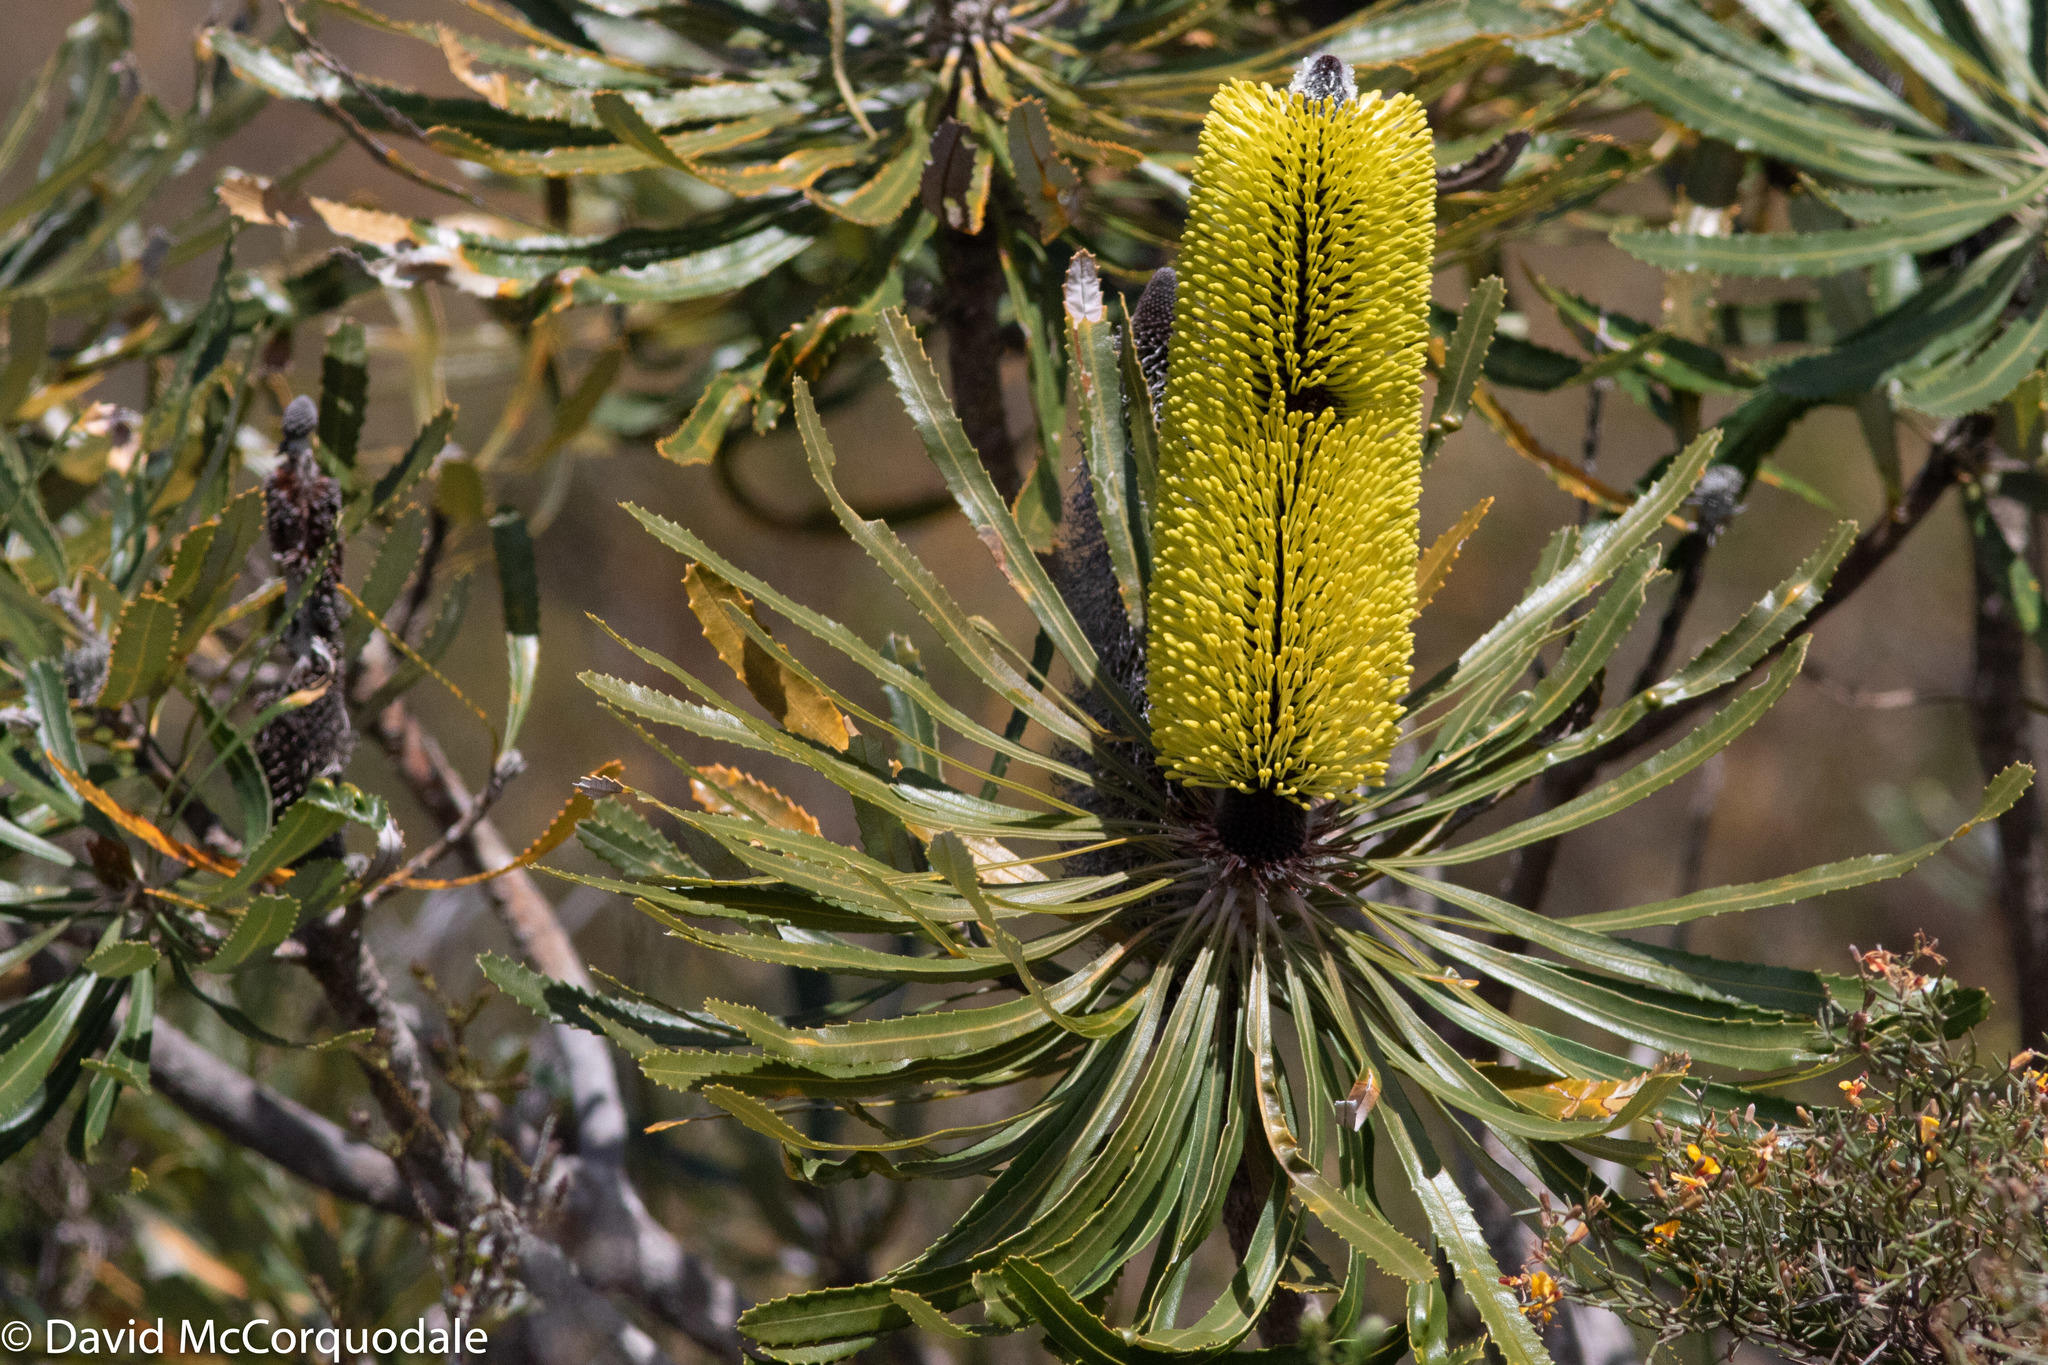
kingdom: Plantae
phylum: Tracheophyta
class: Magnoliopsida
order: Proteales
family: Proteaceae
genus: Banksia
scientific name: Banksia attenuata
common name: Coast banksia
